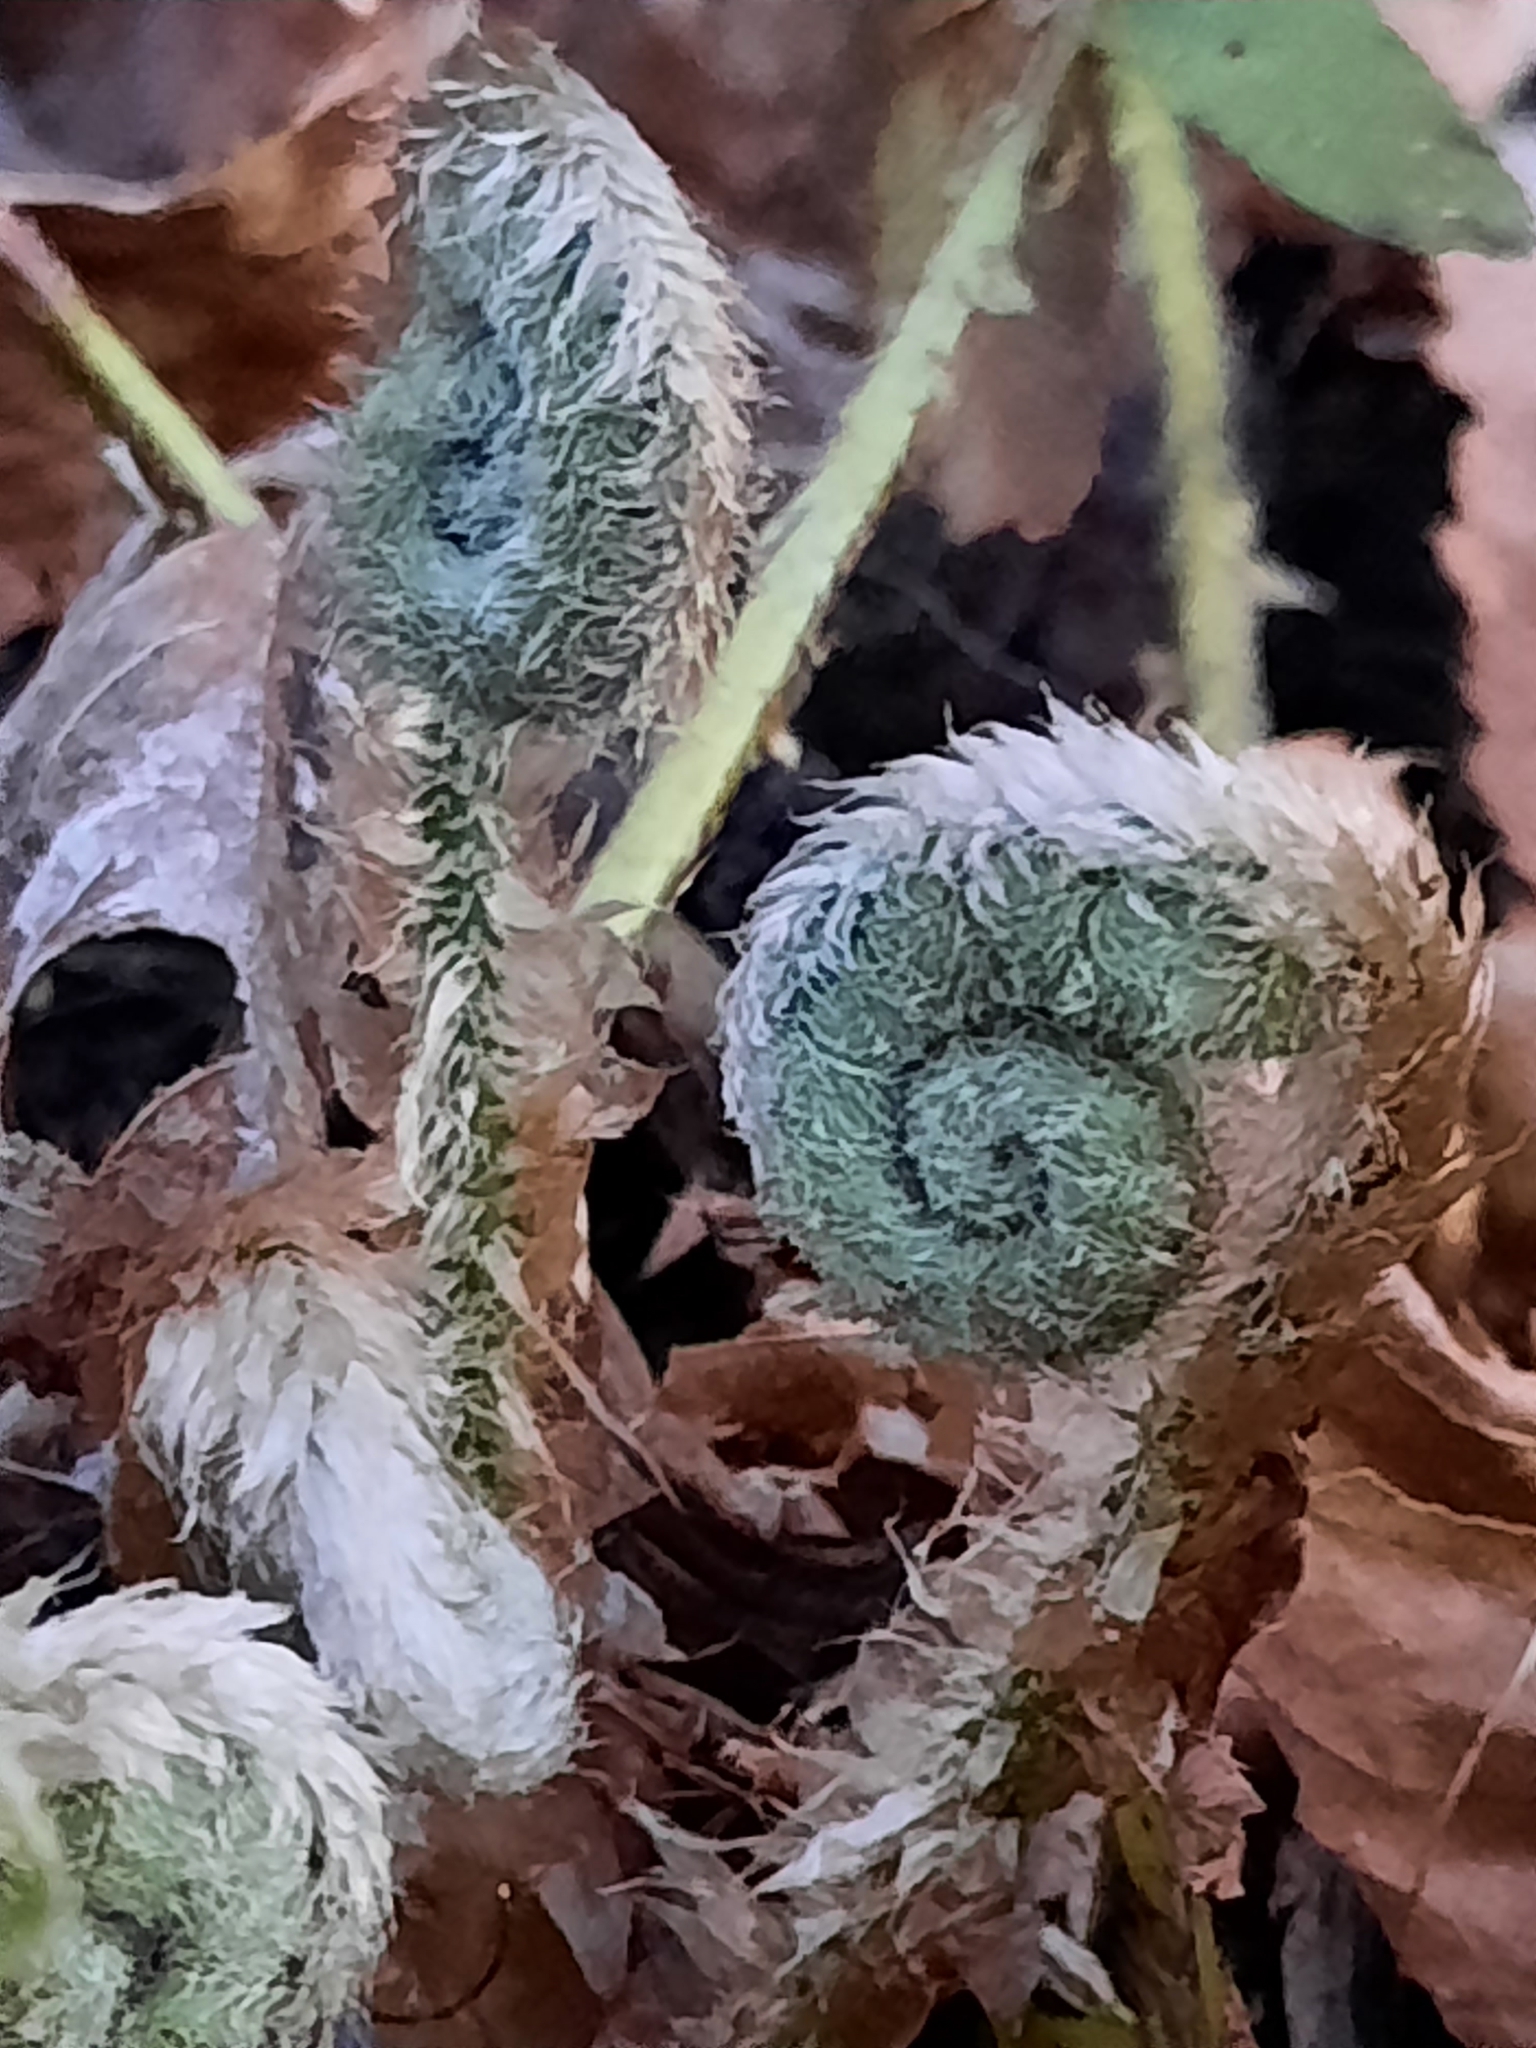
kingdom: Plantae
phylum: Tracheophyta
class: Polypodiopsida
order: Polypodiales
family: Dryopteridaceae
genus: Polystichum
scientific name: Polystichum acrostichoides
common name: Christmas fern
